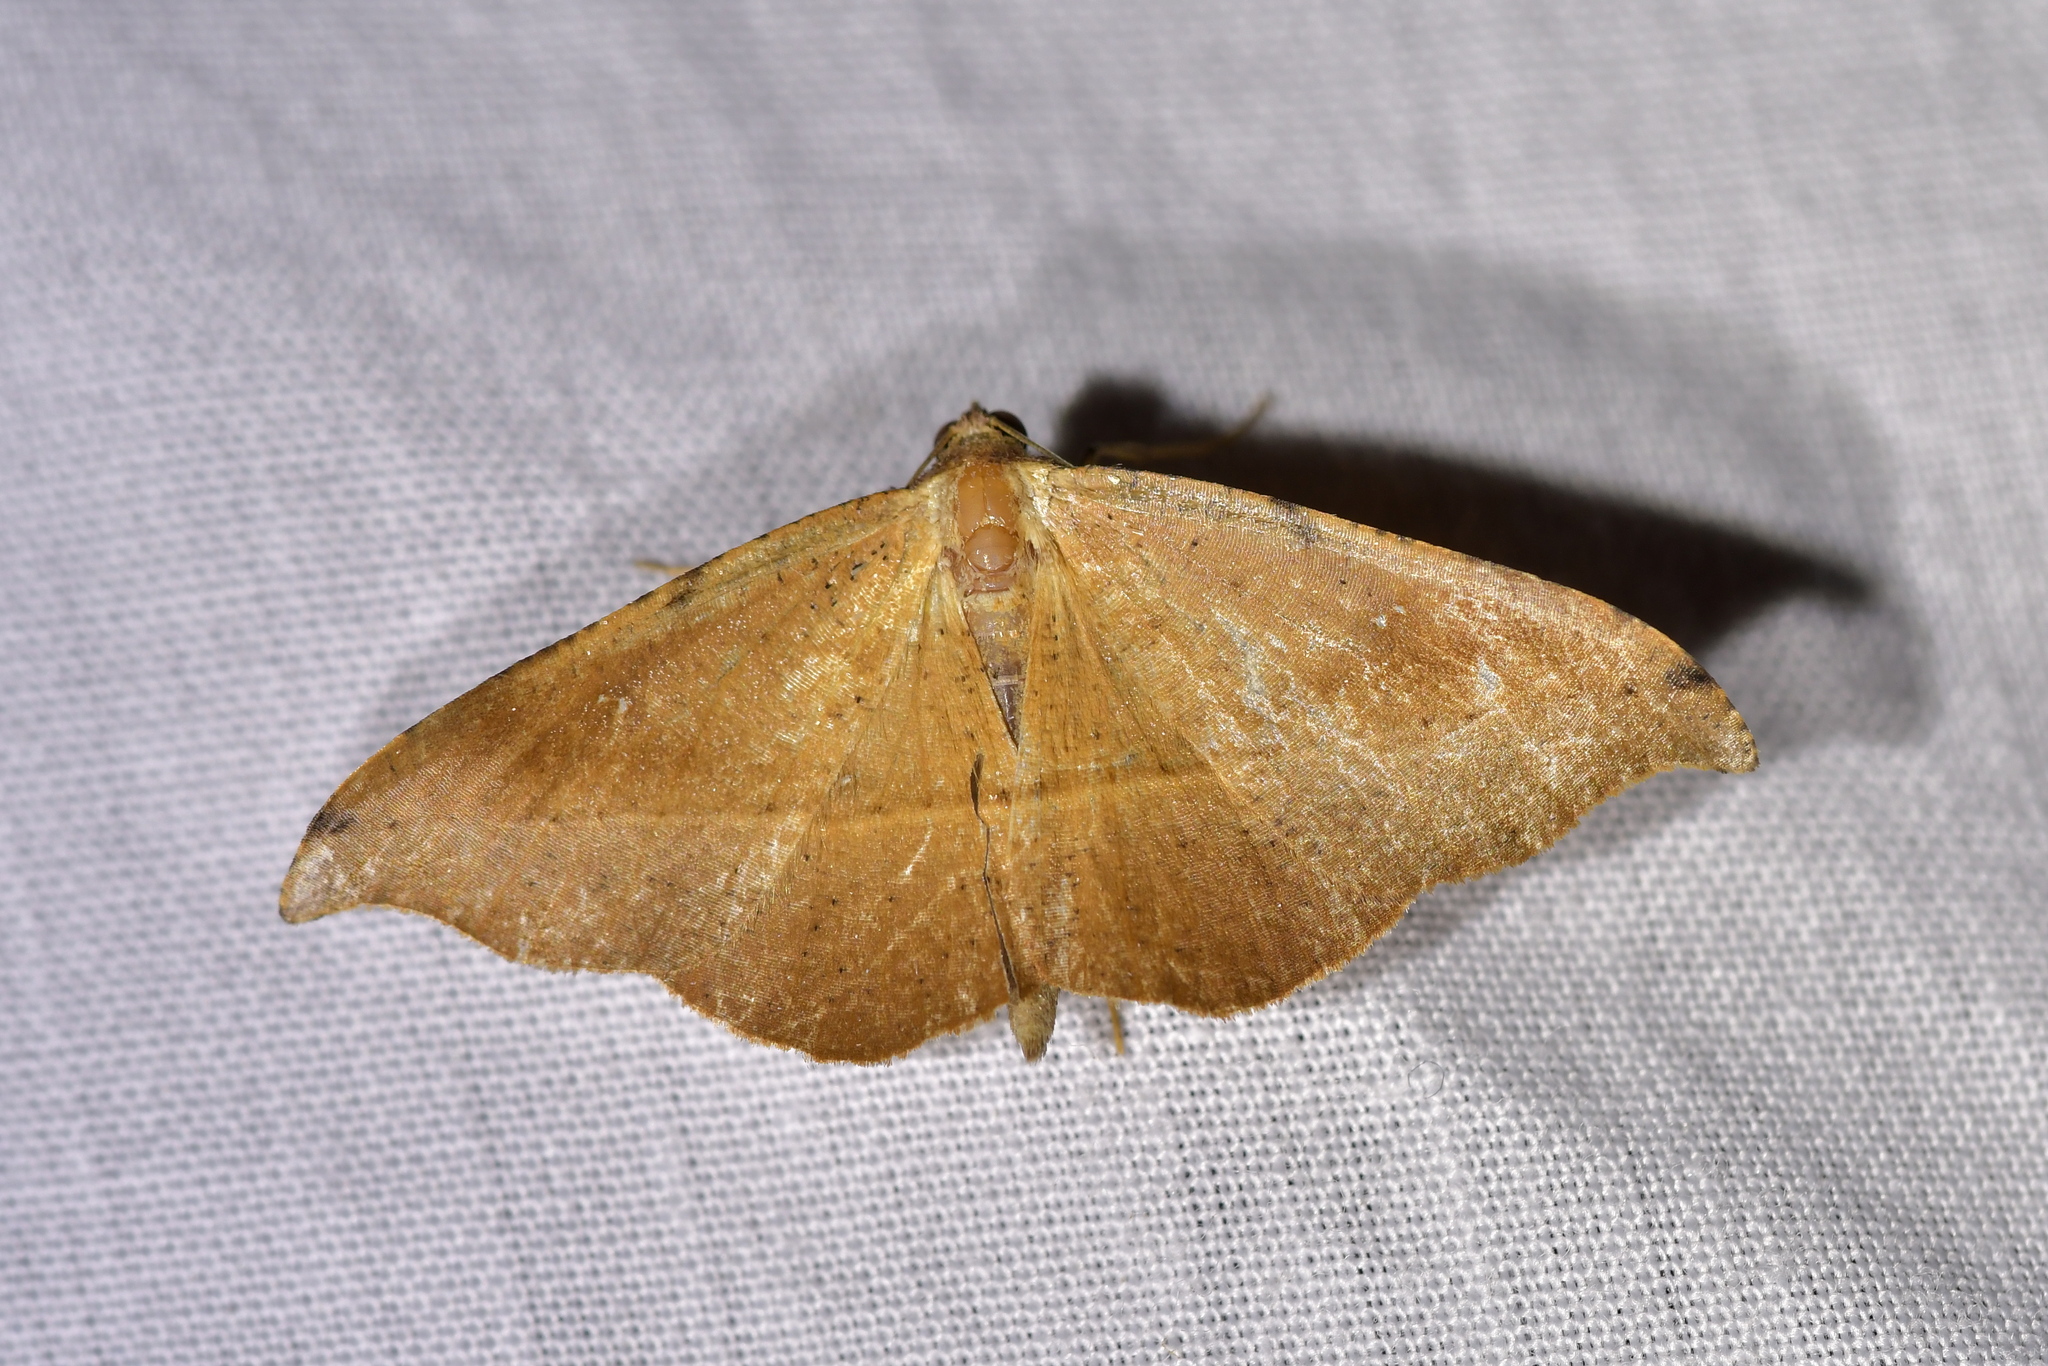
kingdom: Animalia
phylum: Arthropoda
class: Insecta
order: Lepidoptera
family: Geometridae
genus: Sarisa
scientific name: Sarisa muriferata
